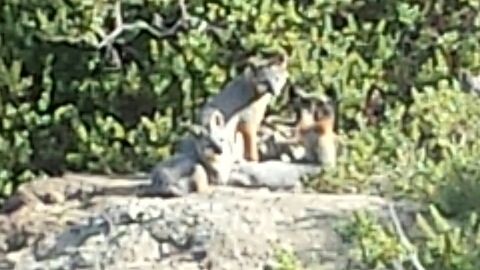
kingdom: Animalia
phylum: Chordata
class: Mammalia
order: Carnivora
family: Canidae
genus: Urocyon
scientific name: Urocyon cinereoargenteus
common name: Gray fox
